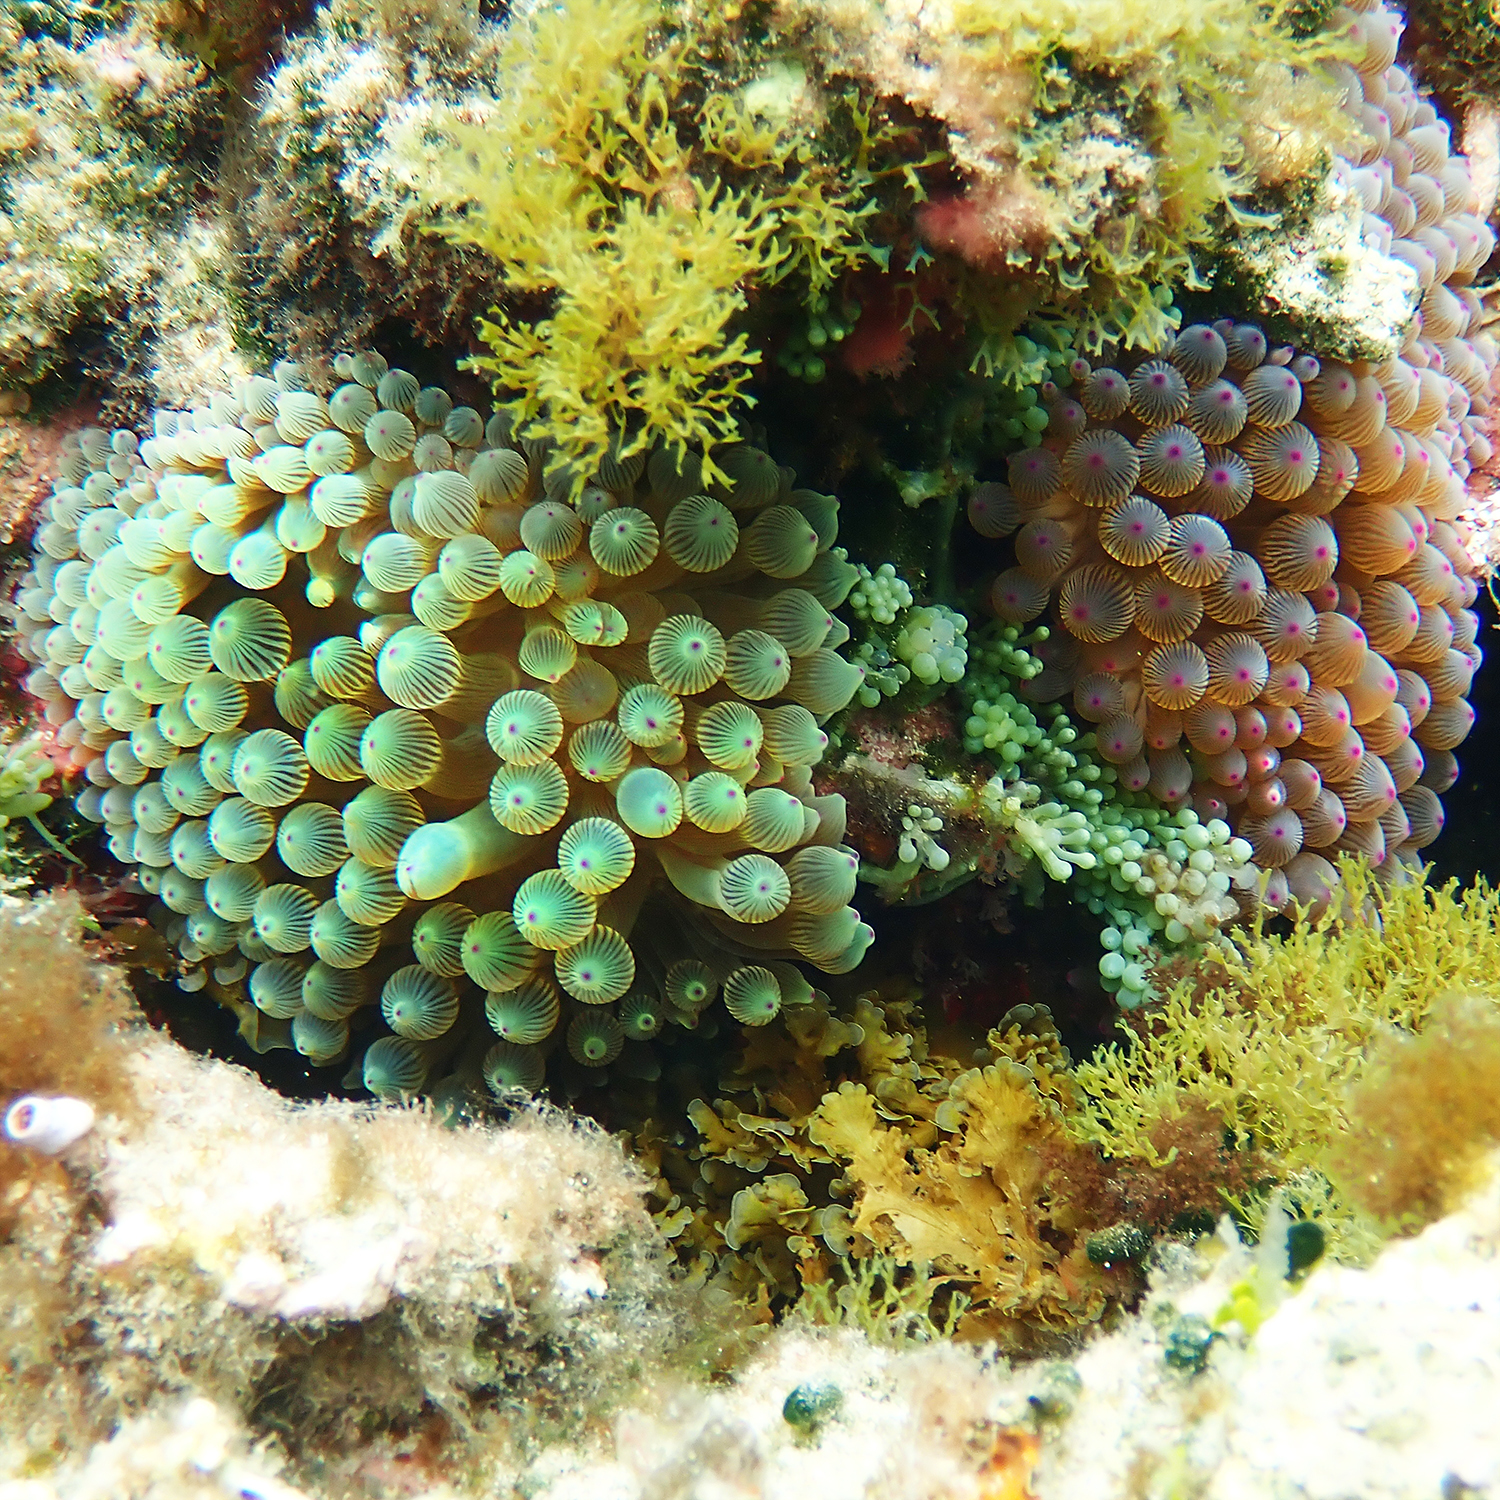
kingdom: Animalia
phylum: Cnidaria
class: Anthozoa
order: Actiniaria
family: Actiniidae
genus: Entacmaea
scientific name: Entacmaea quadricolor
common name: Bulb tentacle sea anemone
